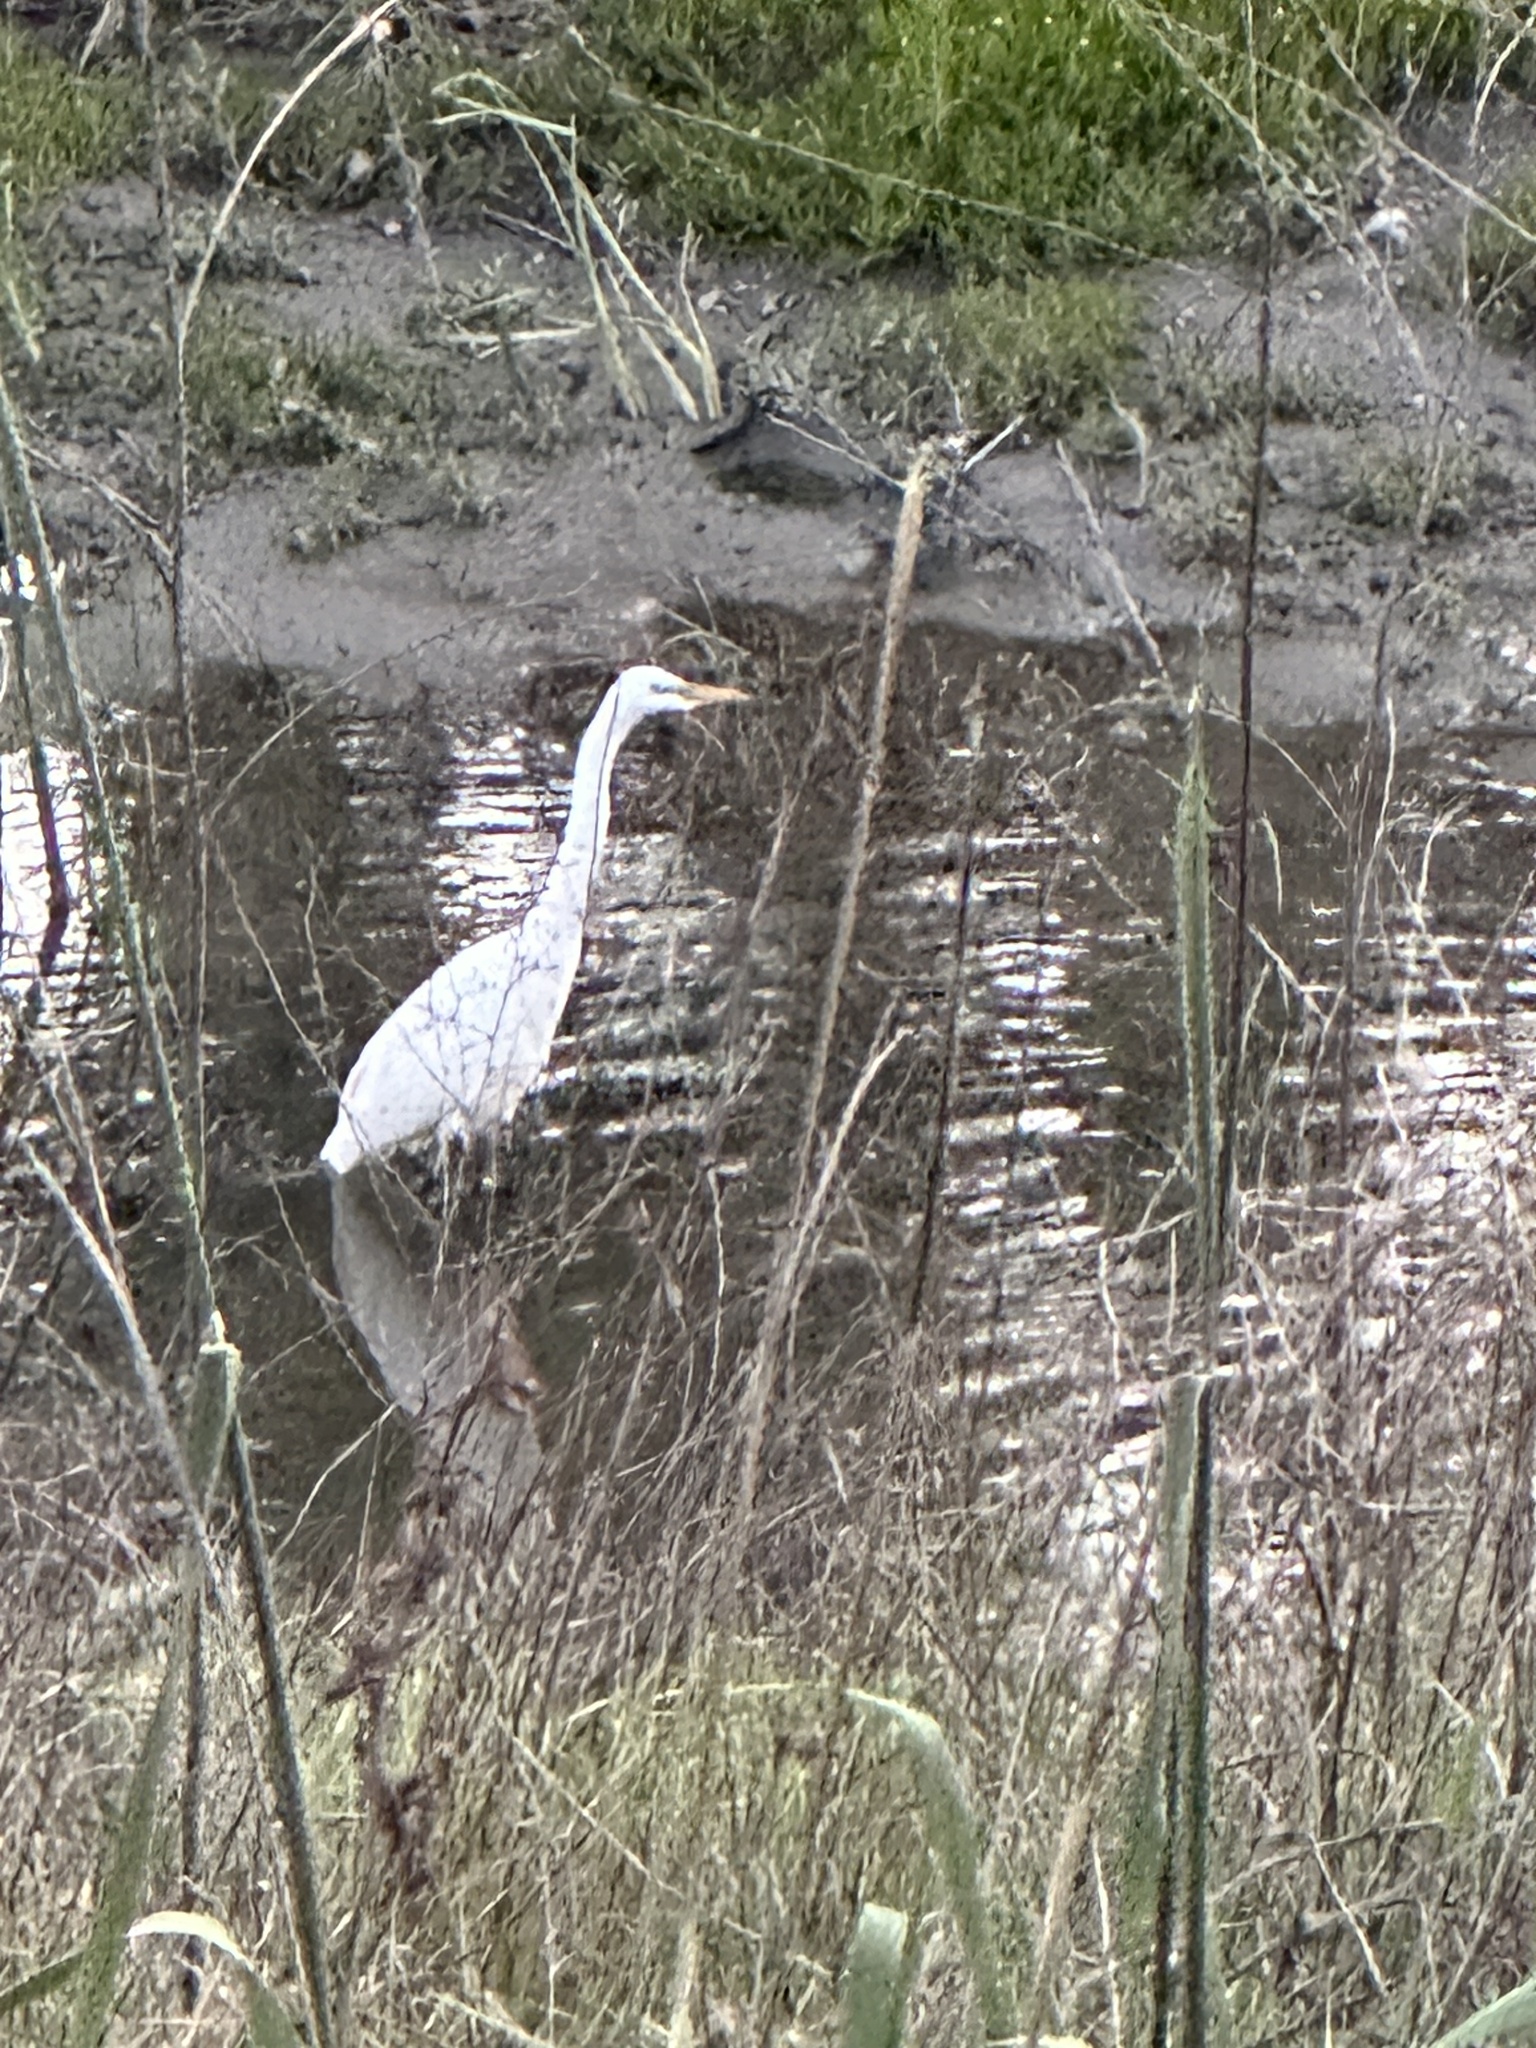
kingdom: Animalia
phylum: Chordata
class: Aves
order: Pelecaniformes
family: Ardeidae
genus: Ardea
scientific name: Ardea alba
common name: Great egret
